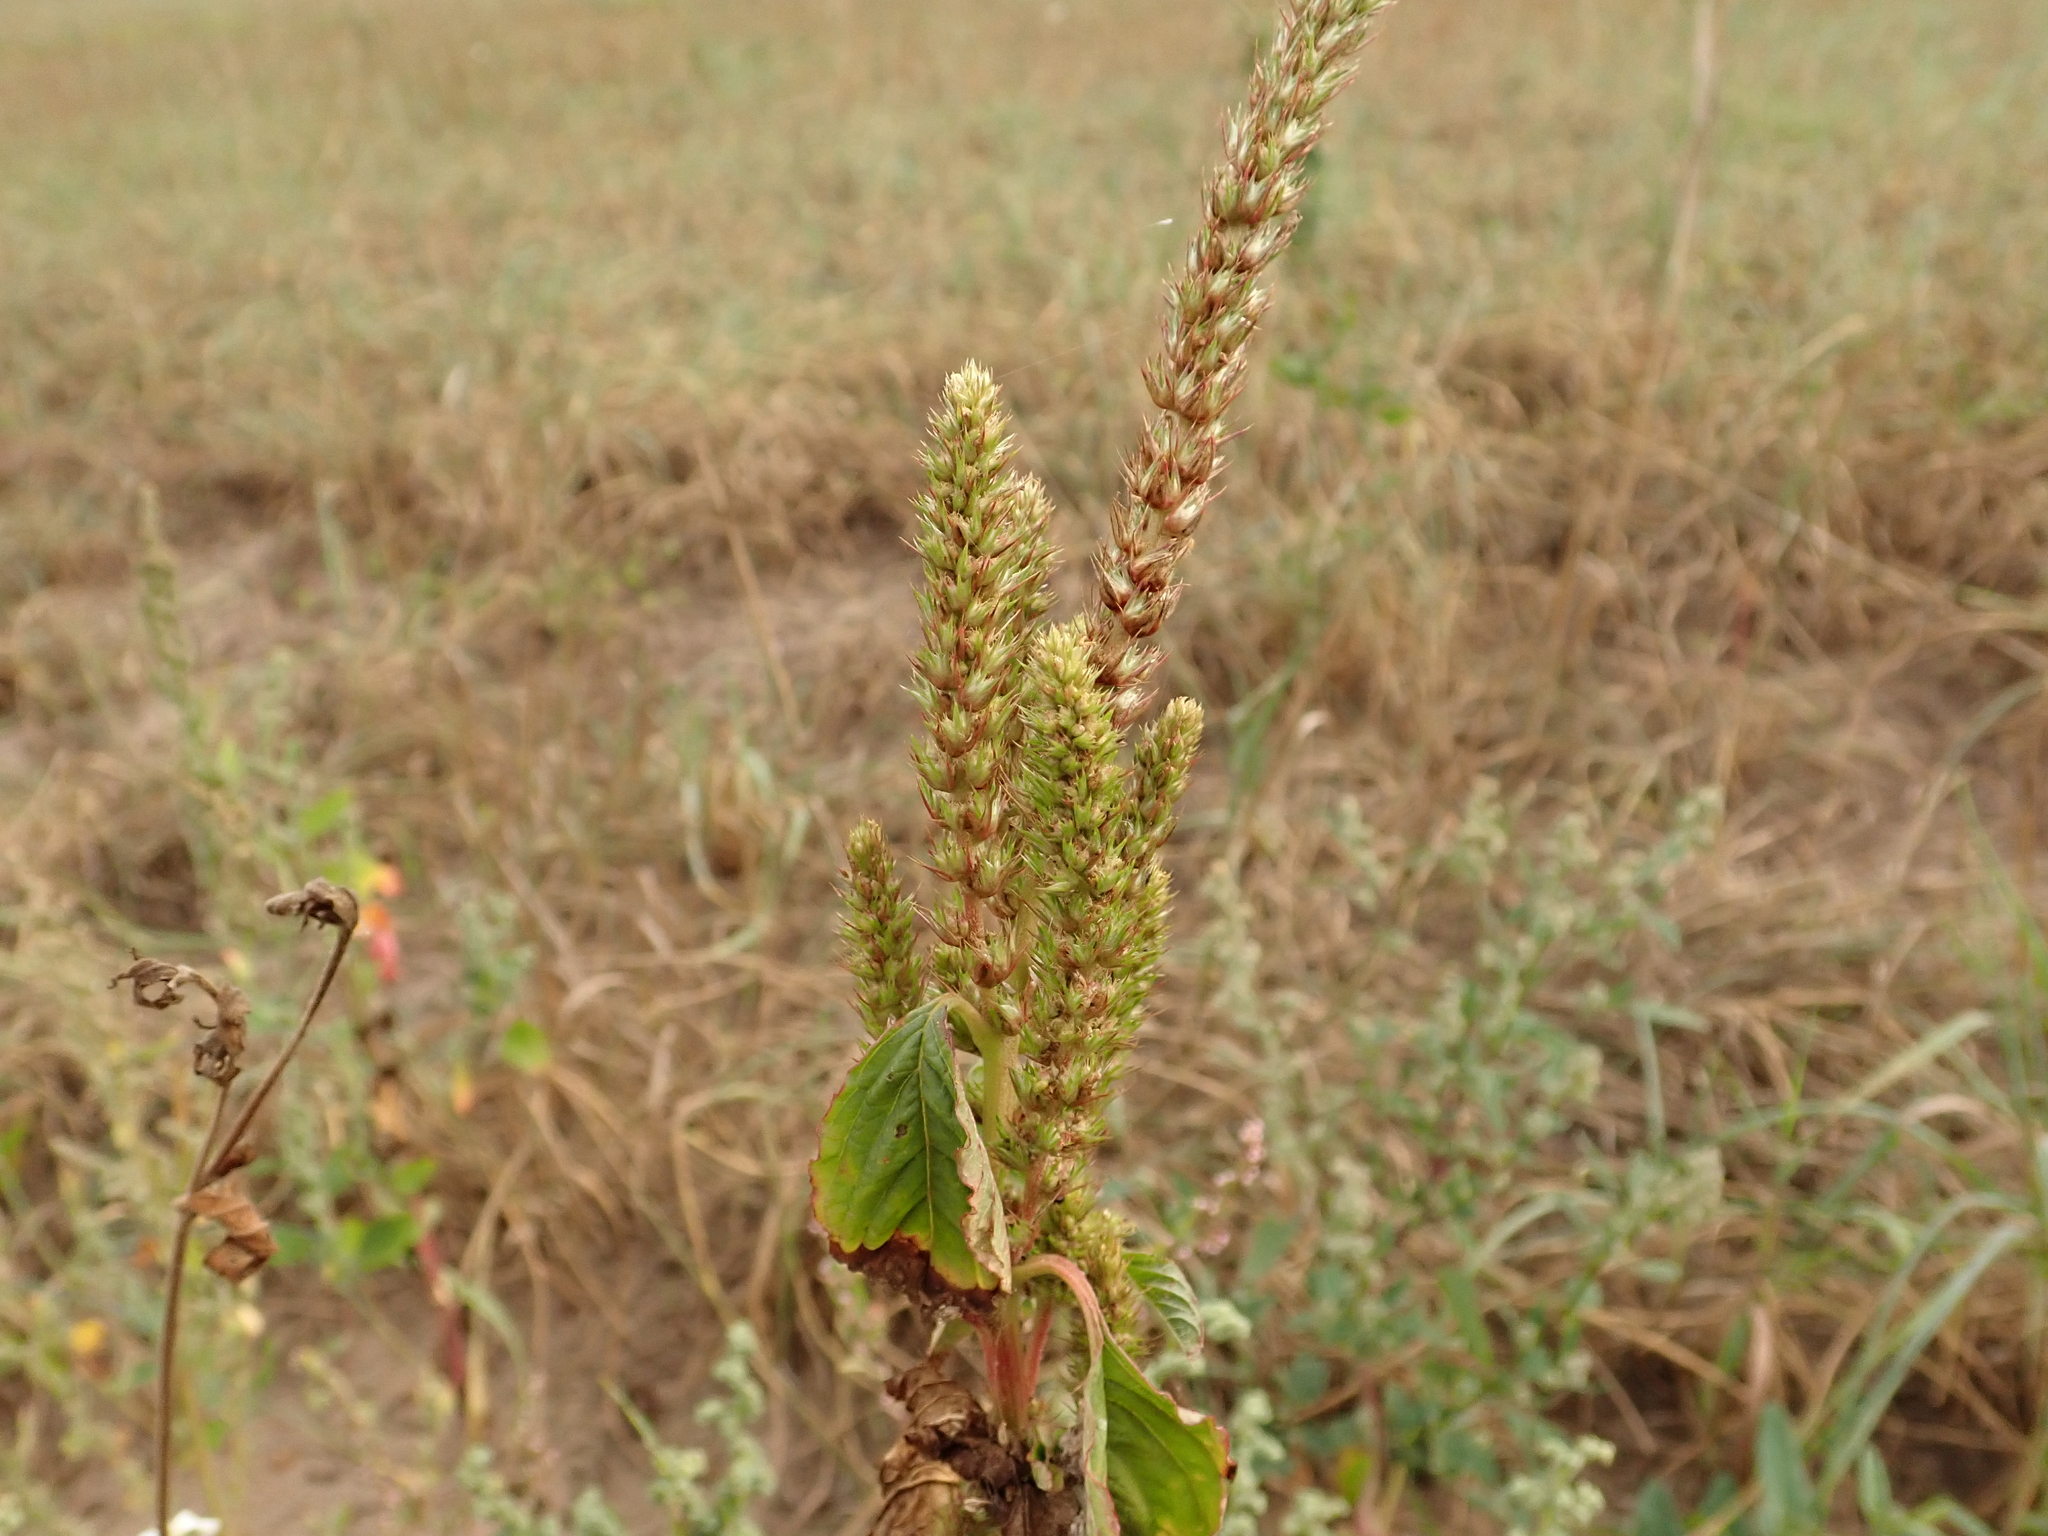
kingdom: Plantae
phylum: Tracheophyta
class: Magnoliopsida
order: Caryophyllales
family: Amaranthaceae
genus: Amaranthus
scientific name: Amaranthus retroflexus
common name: Redroot amaranth
